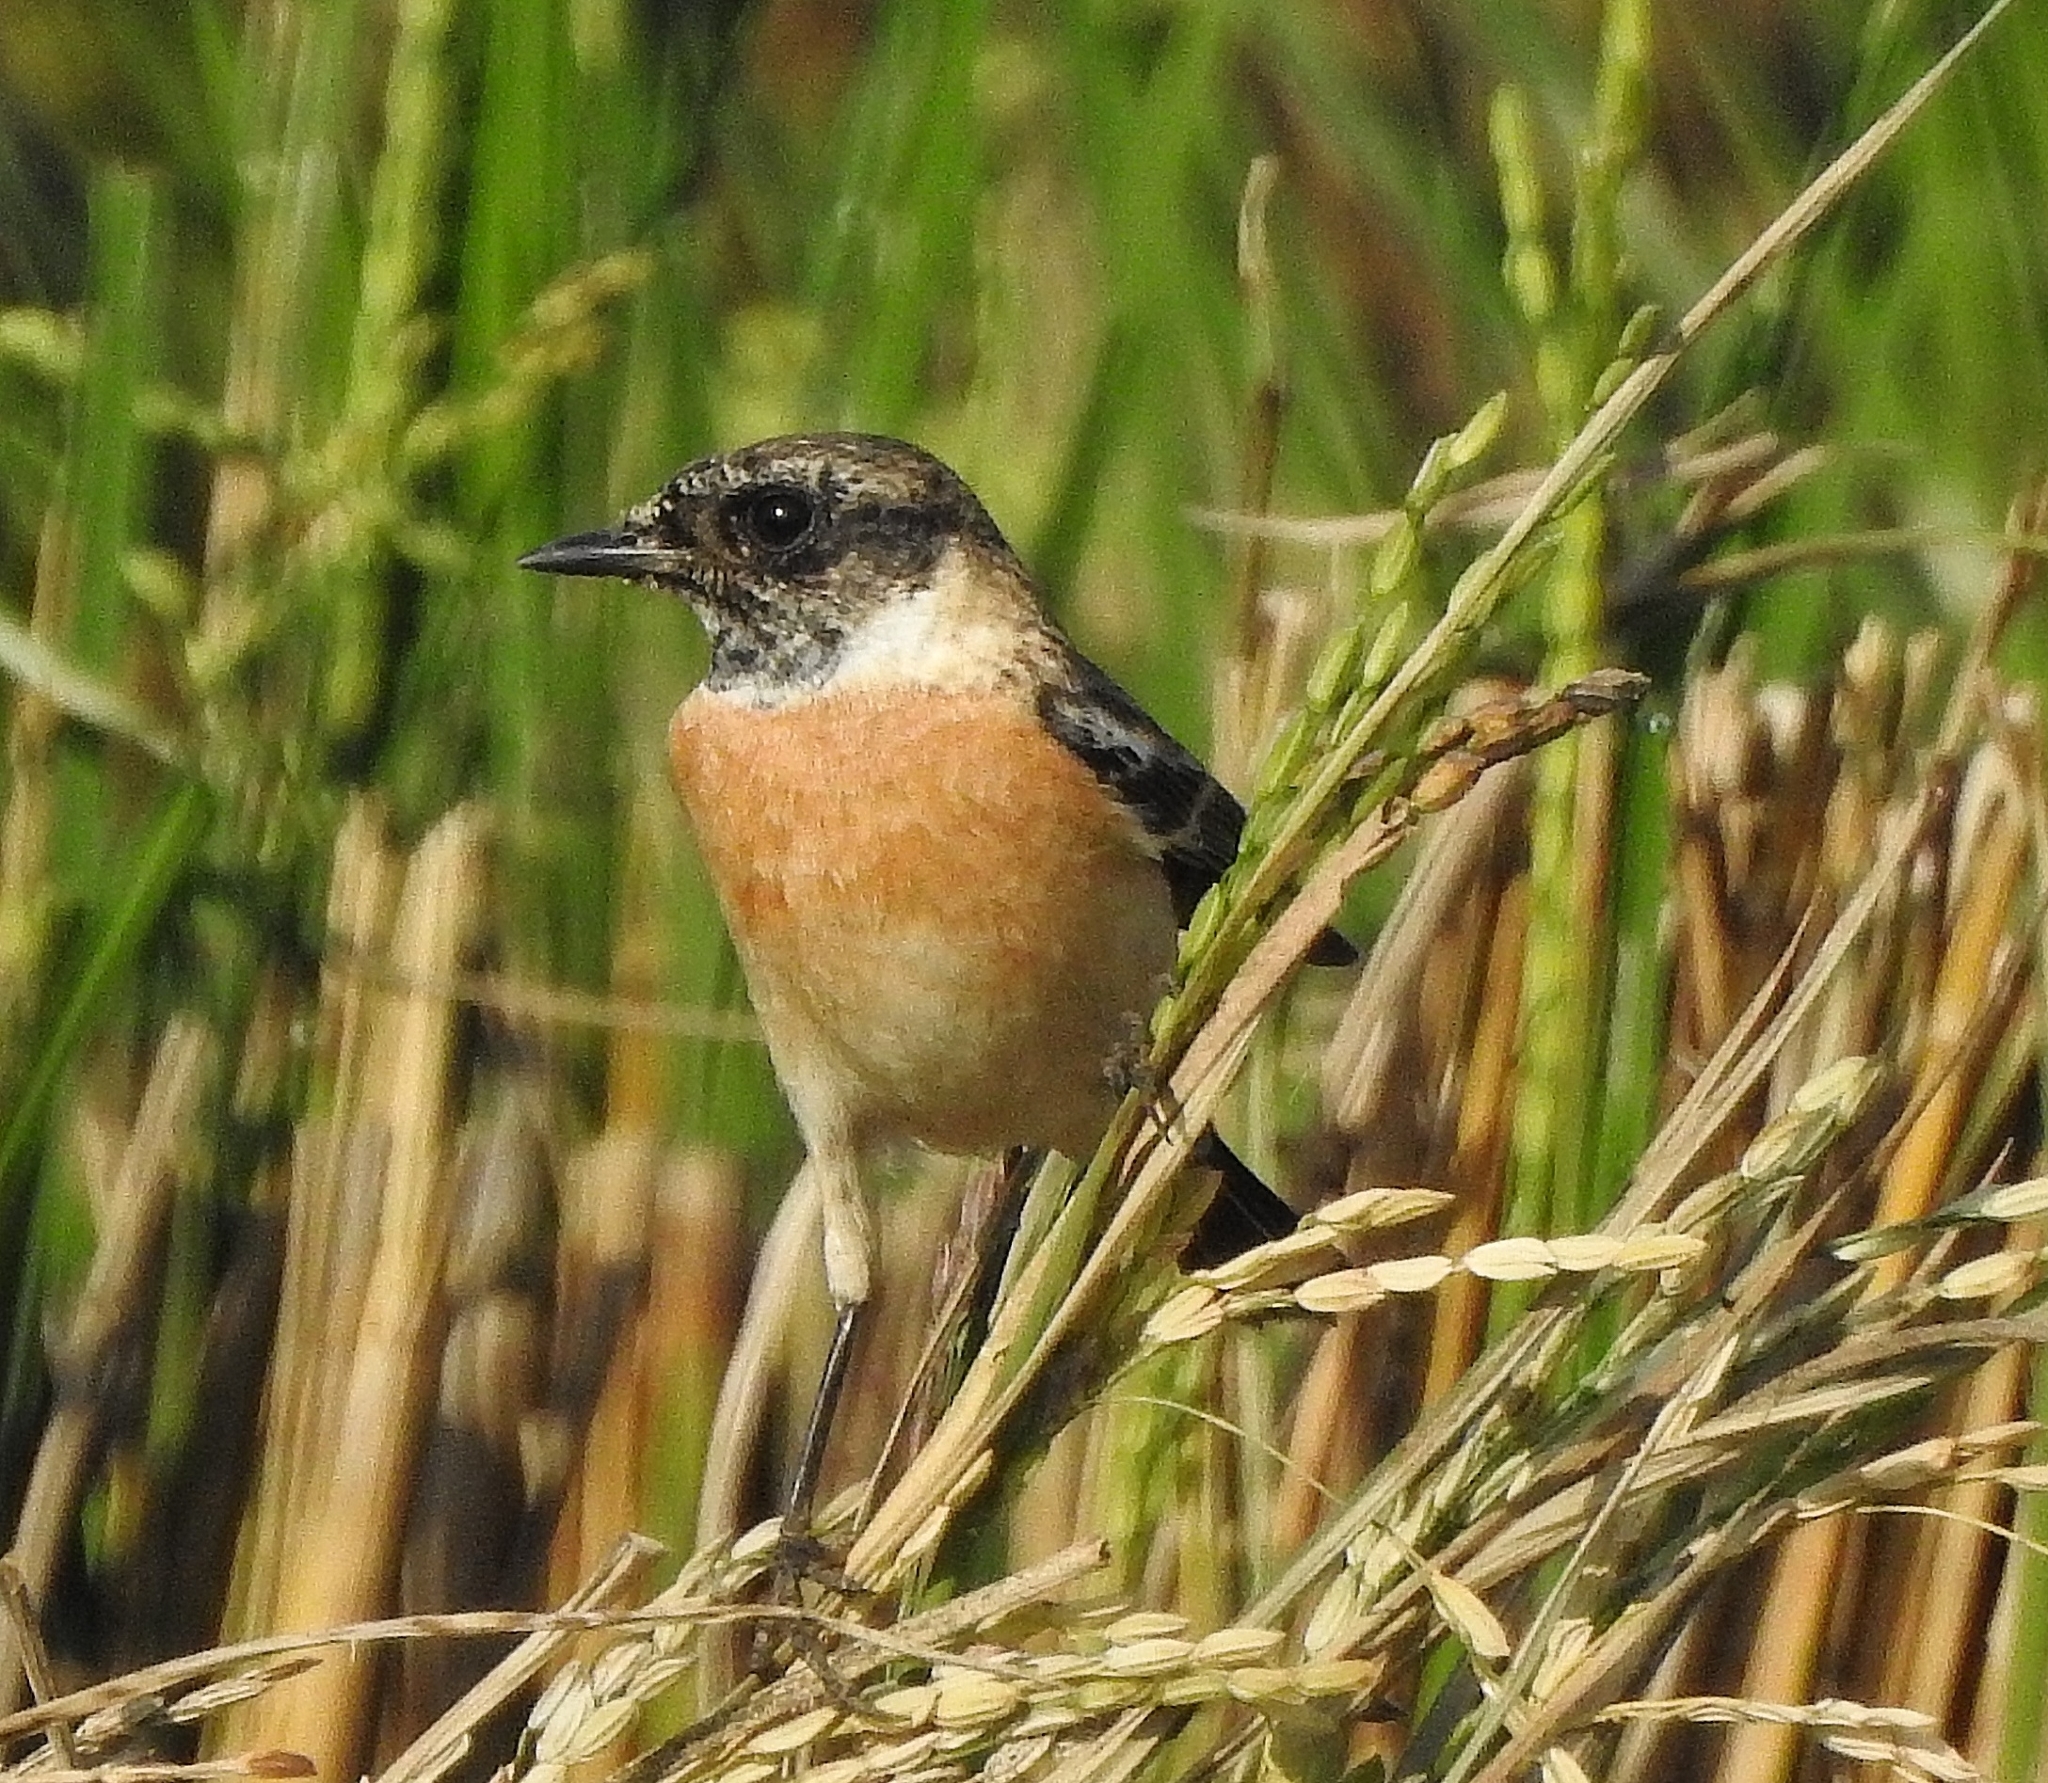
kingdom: Animalia
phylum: Chordata
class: Aves
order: Passeriformes
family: Muscicapidae
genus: Saxicola
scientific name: Saxicola maurus
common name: Siberian stonechat
